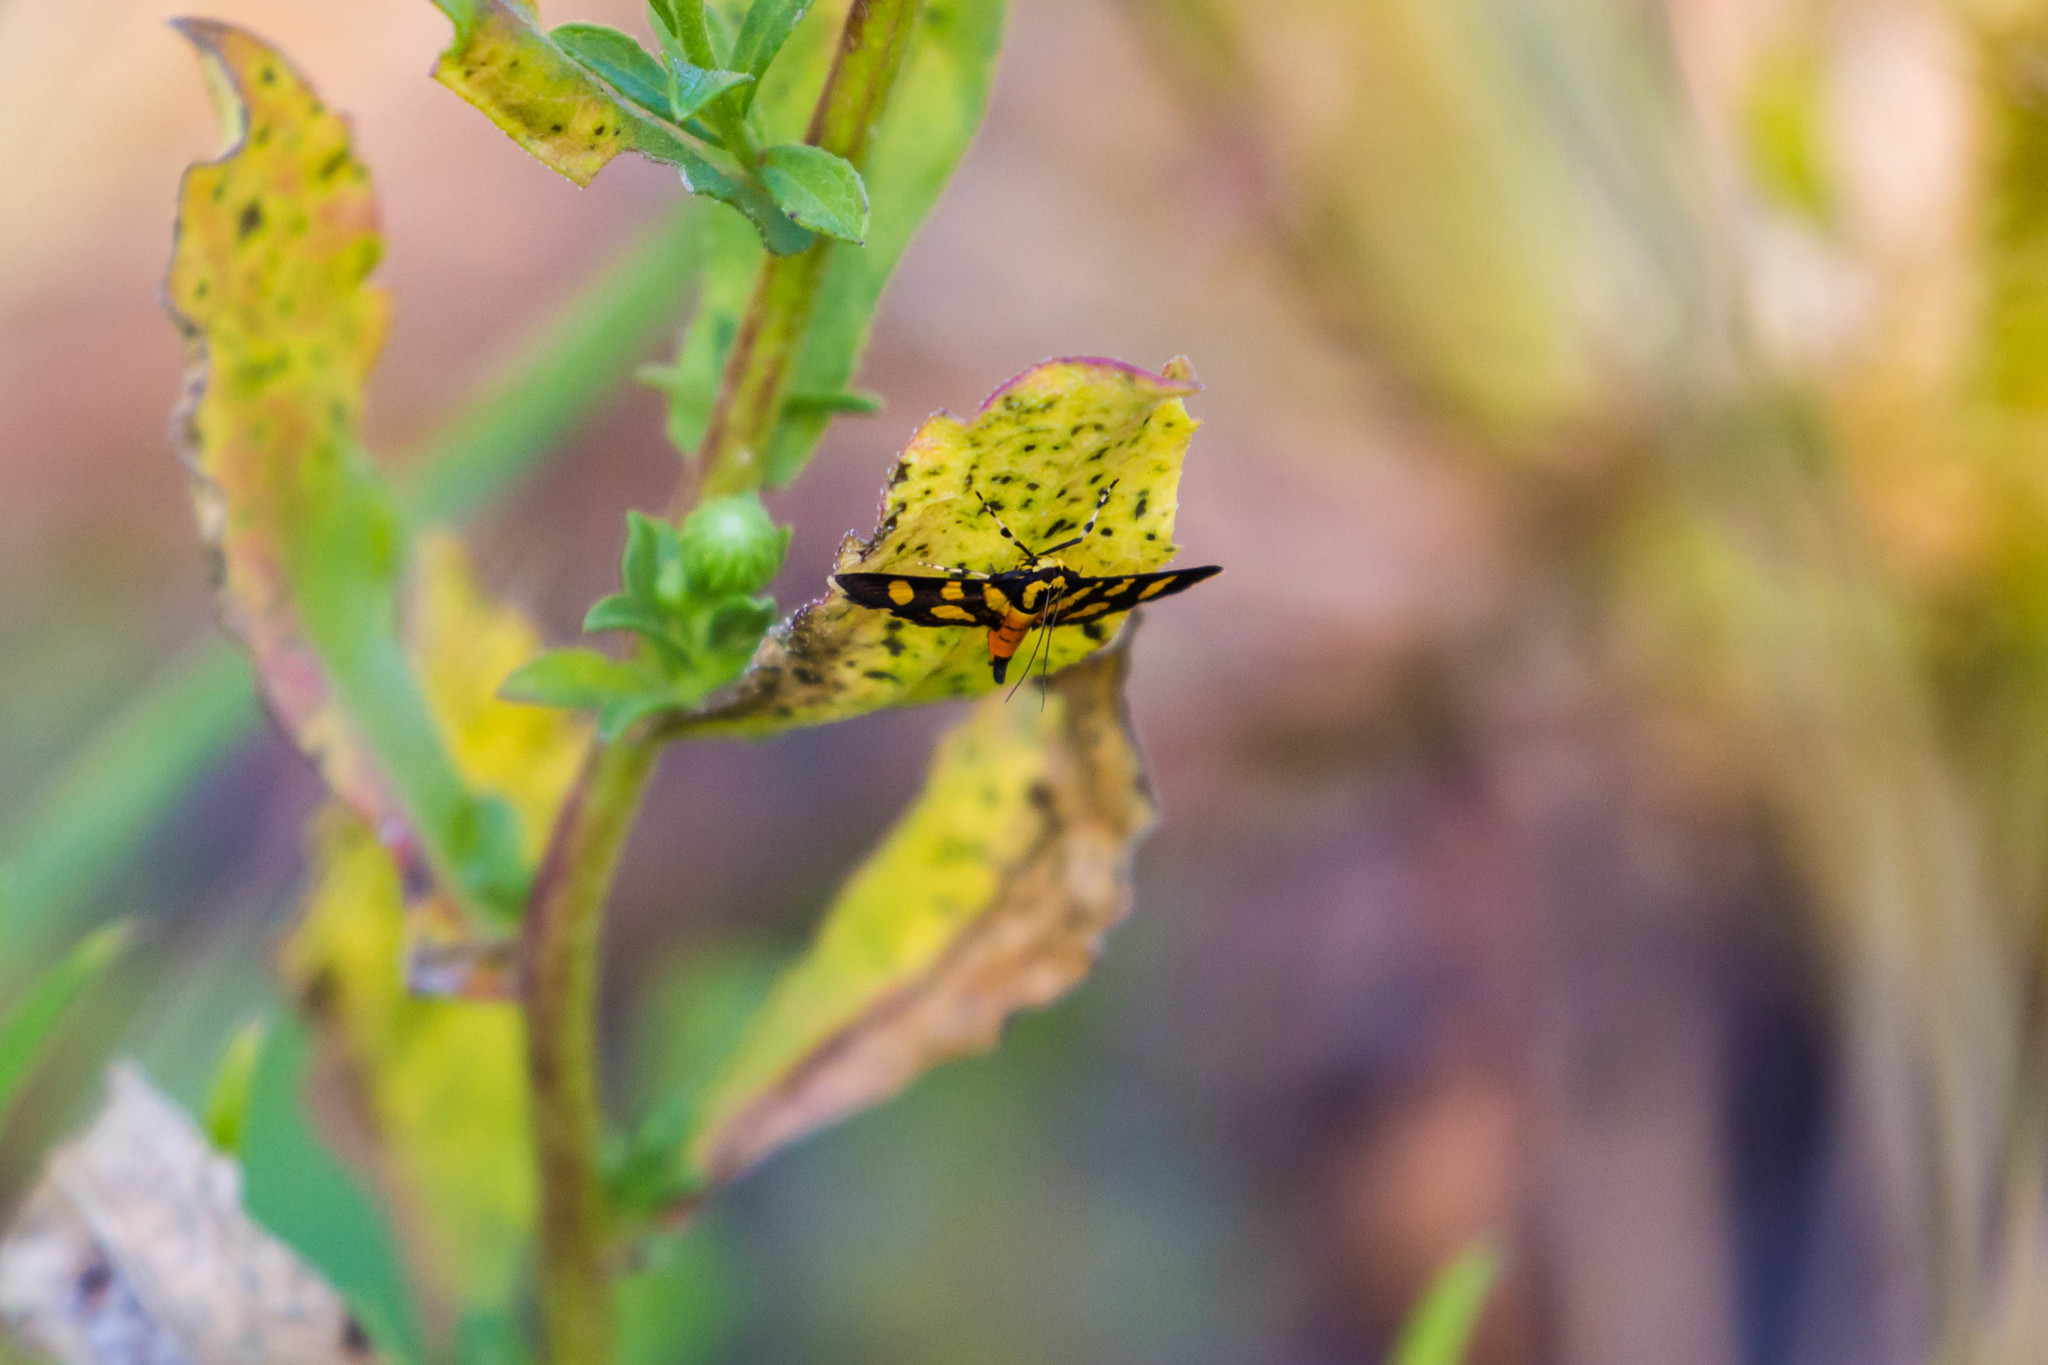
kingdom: Animalia
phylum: Arthropoda
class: Insecta
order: Lepidoptera
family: Crambidae
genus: Syngamia
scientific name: Syngamia florella
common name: Orange-spotted flower moth
